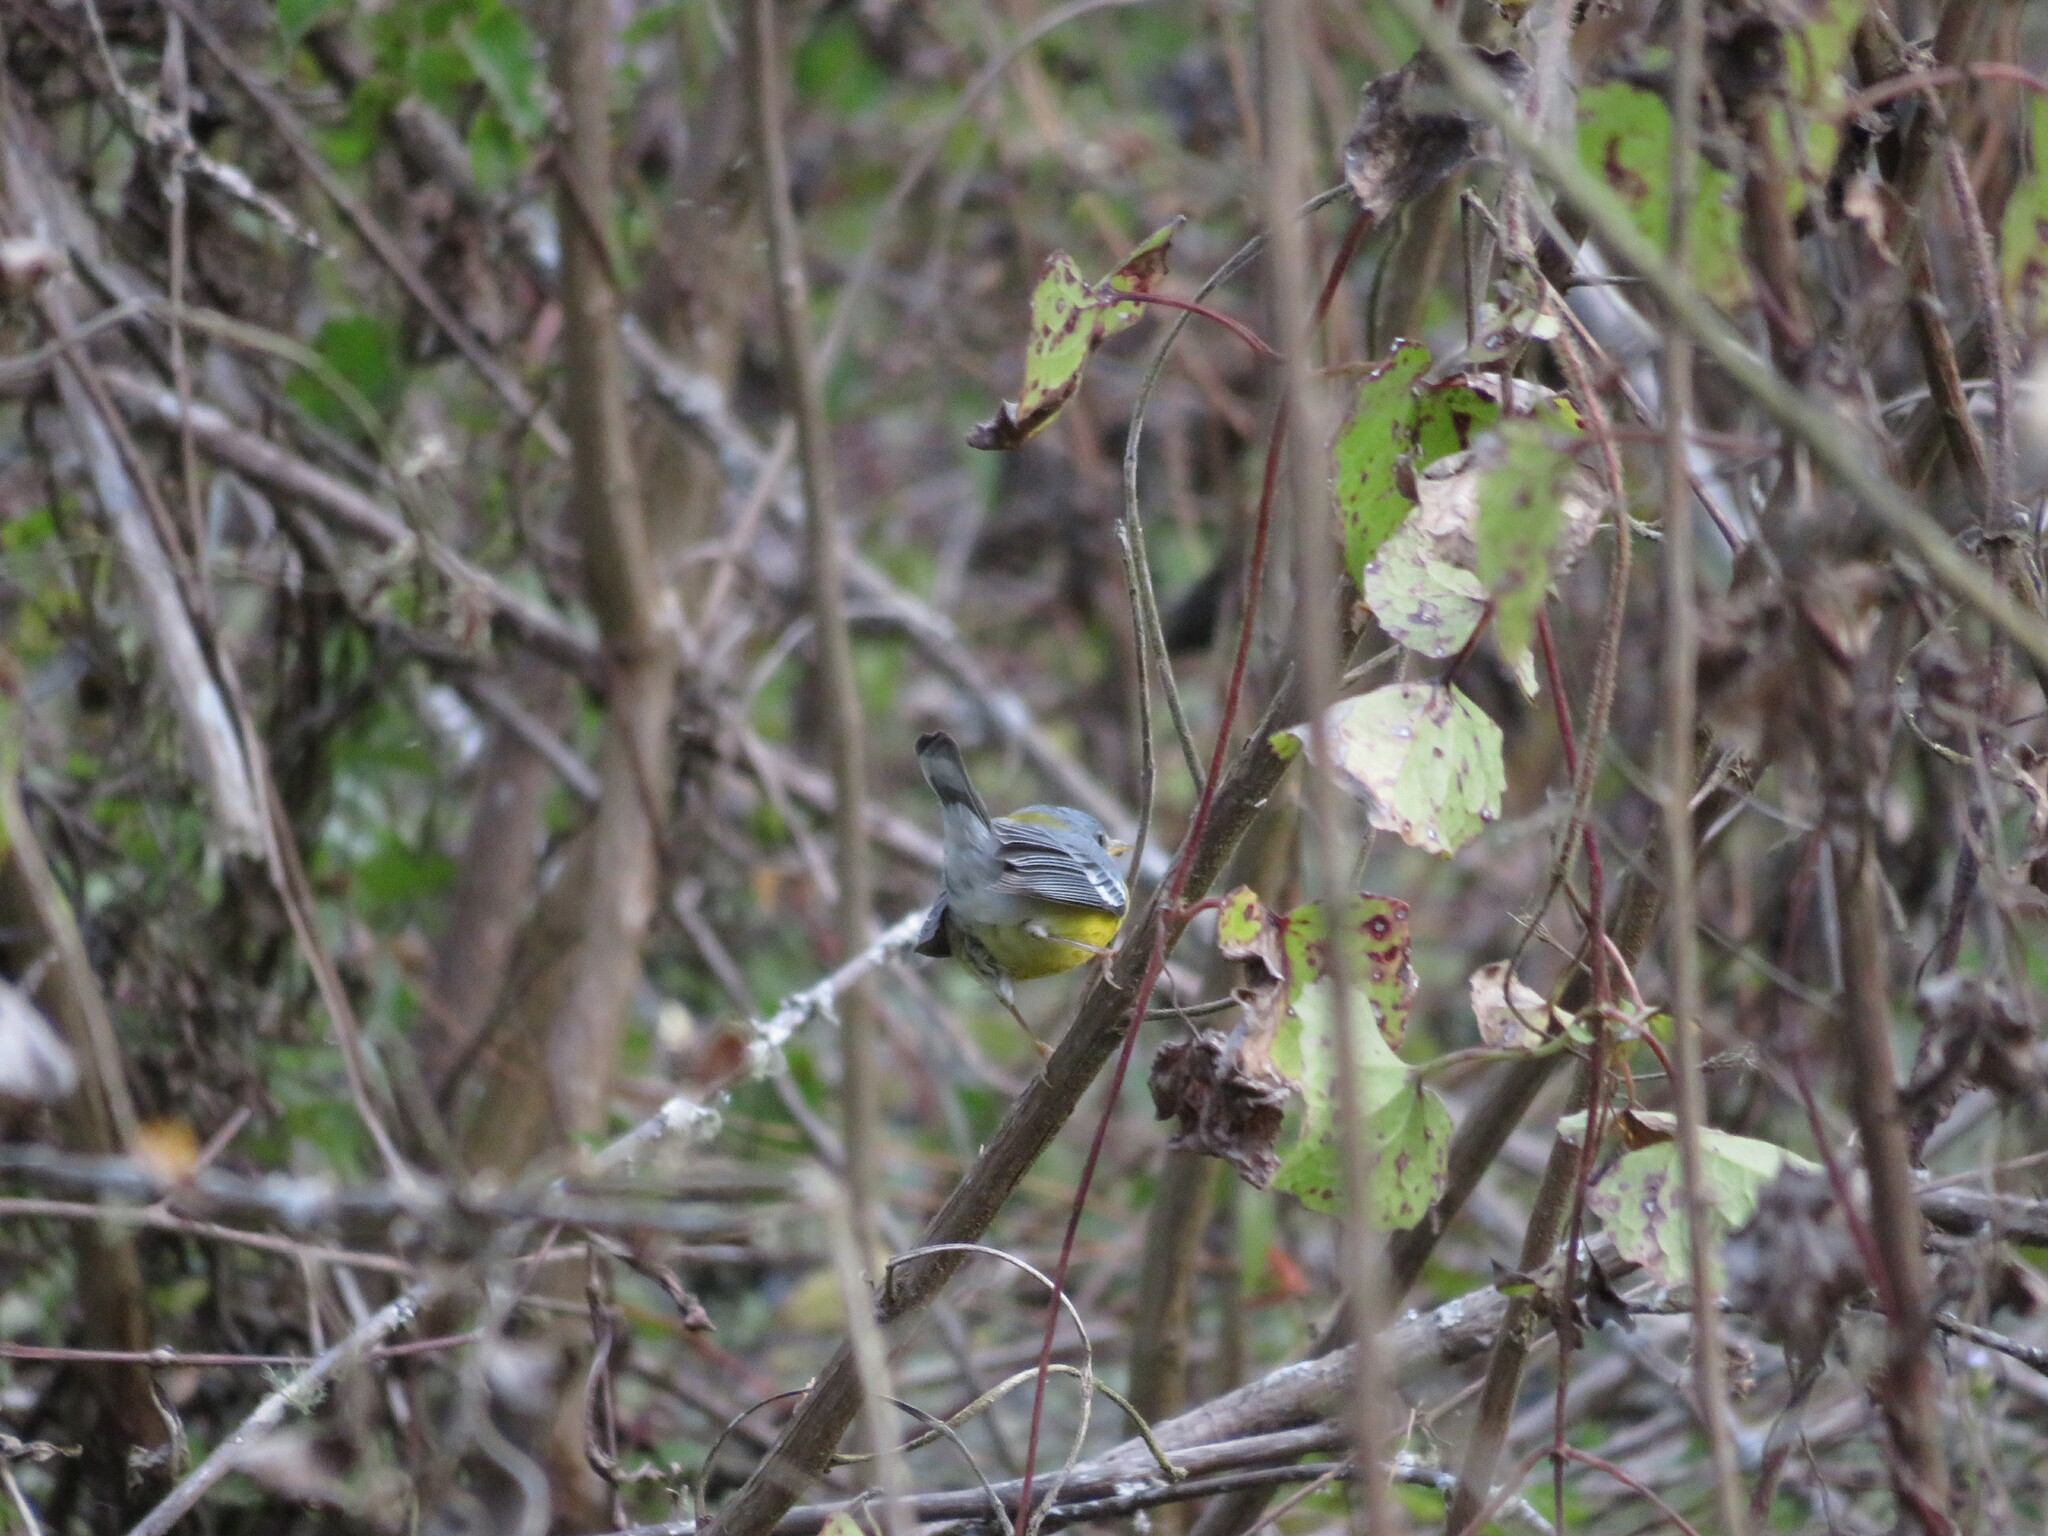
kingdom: Animalia
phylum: Chordata
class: Aves
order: Passeriformes
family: Parulidae
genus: Setophaga
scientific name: Setophaga pitiayumi
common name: Tropical parula
